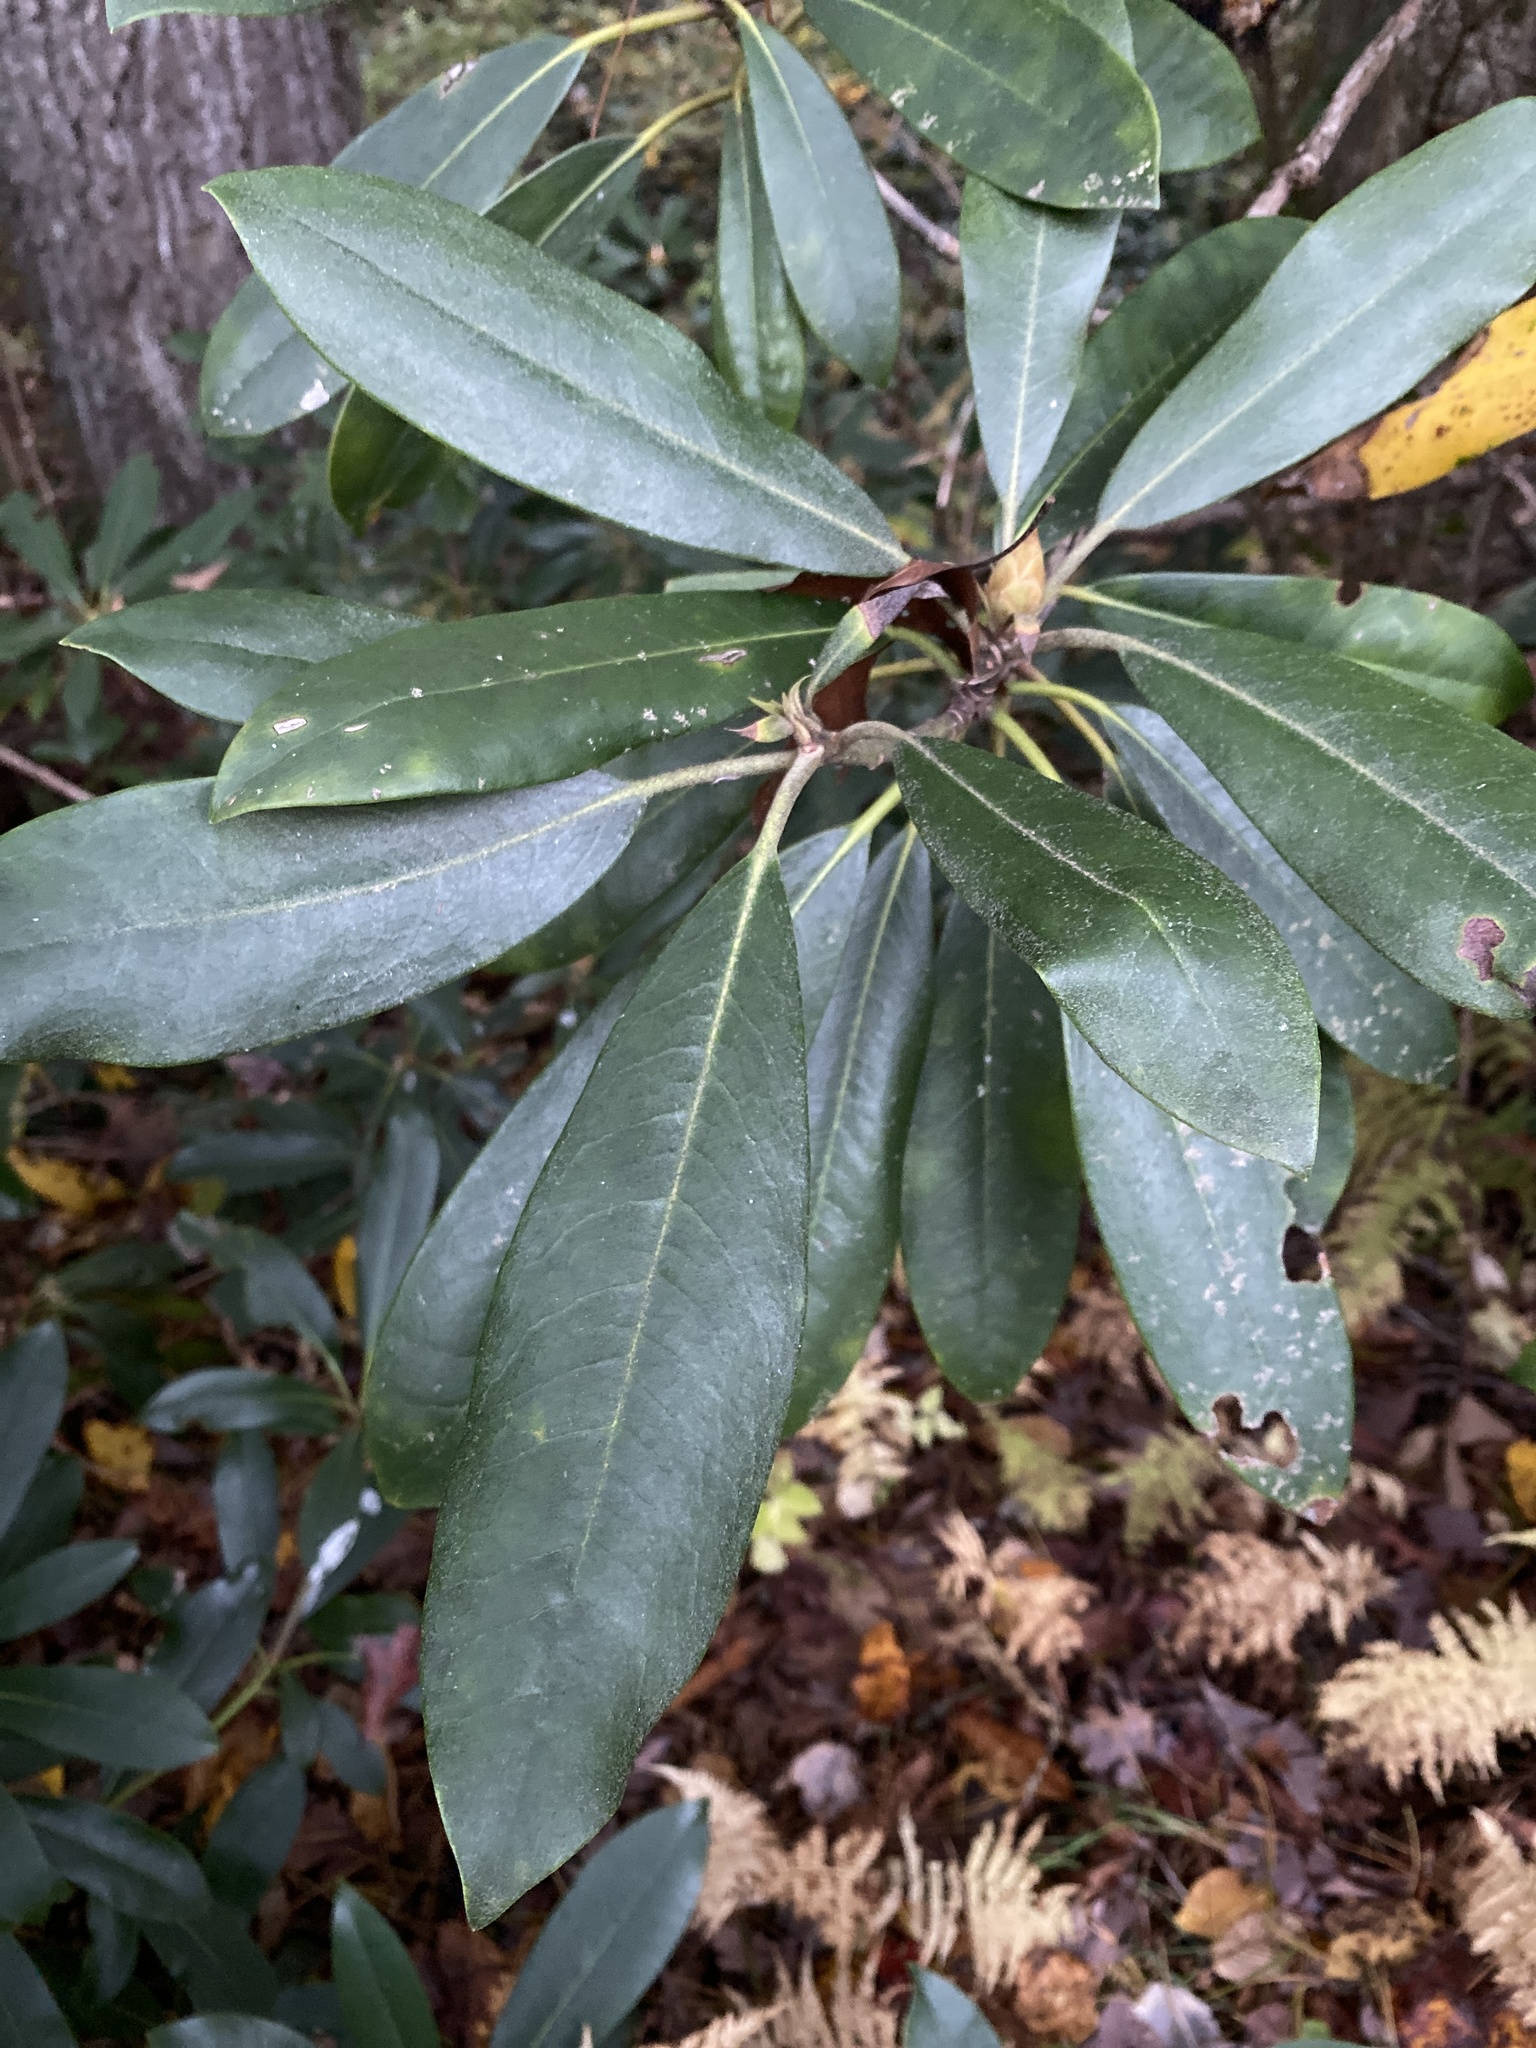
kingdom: Plantae
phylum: Tracheophyta
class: Magnoliopsida
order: Ericales
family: Ericaceae
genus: Rhododendron
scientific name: Rhododendron maximum
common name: Great rhododendron
